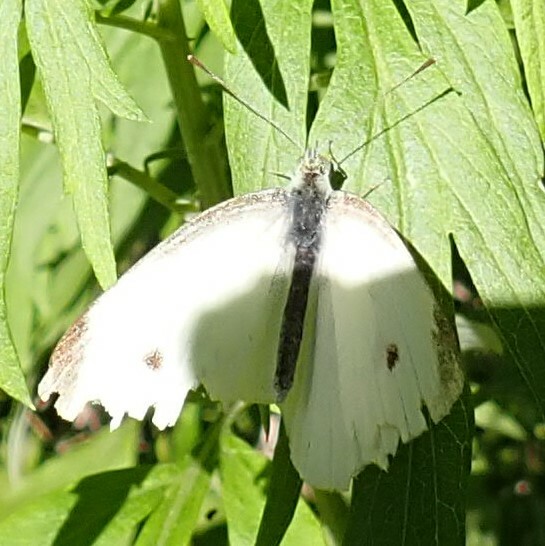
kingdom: Animalia
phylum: Arthropoda
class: Insecta
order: Lepidoptera
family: Pieridae
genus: Pieris
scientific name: Pieris rapae
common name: Small white
